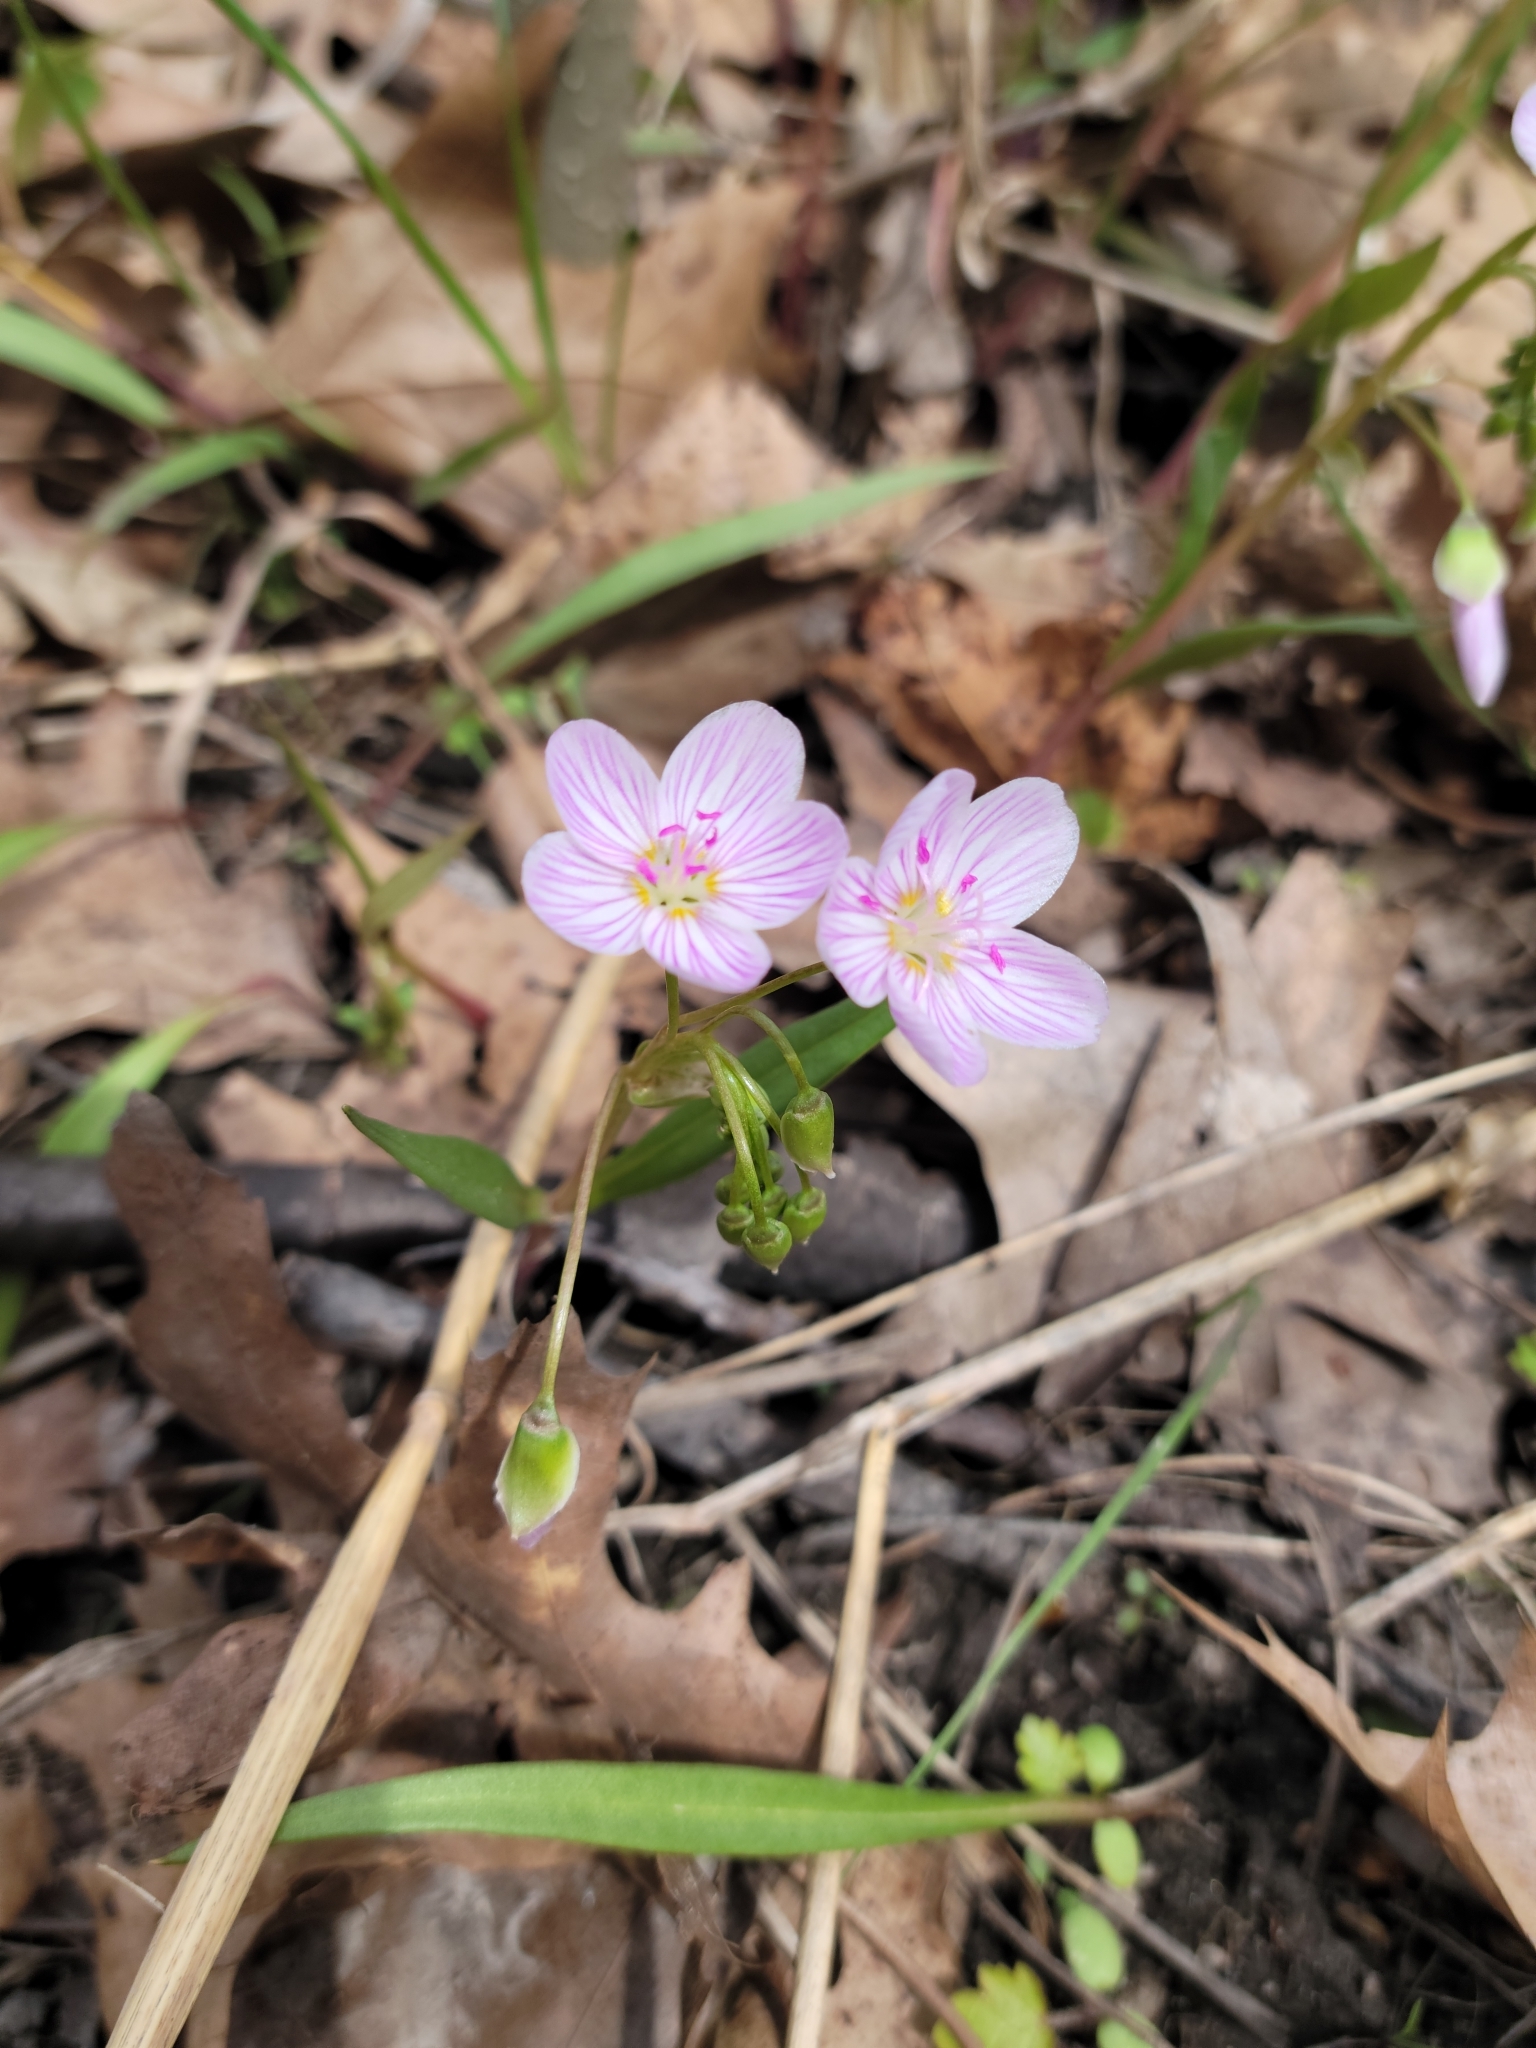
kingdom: Plantae
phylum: Tracheophyta
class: Magnoliopsida
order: Caryophyllales
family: Montiaceae
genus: Claytonia
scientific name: Claytonia virginica
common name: Virginia springbeauty
